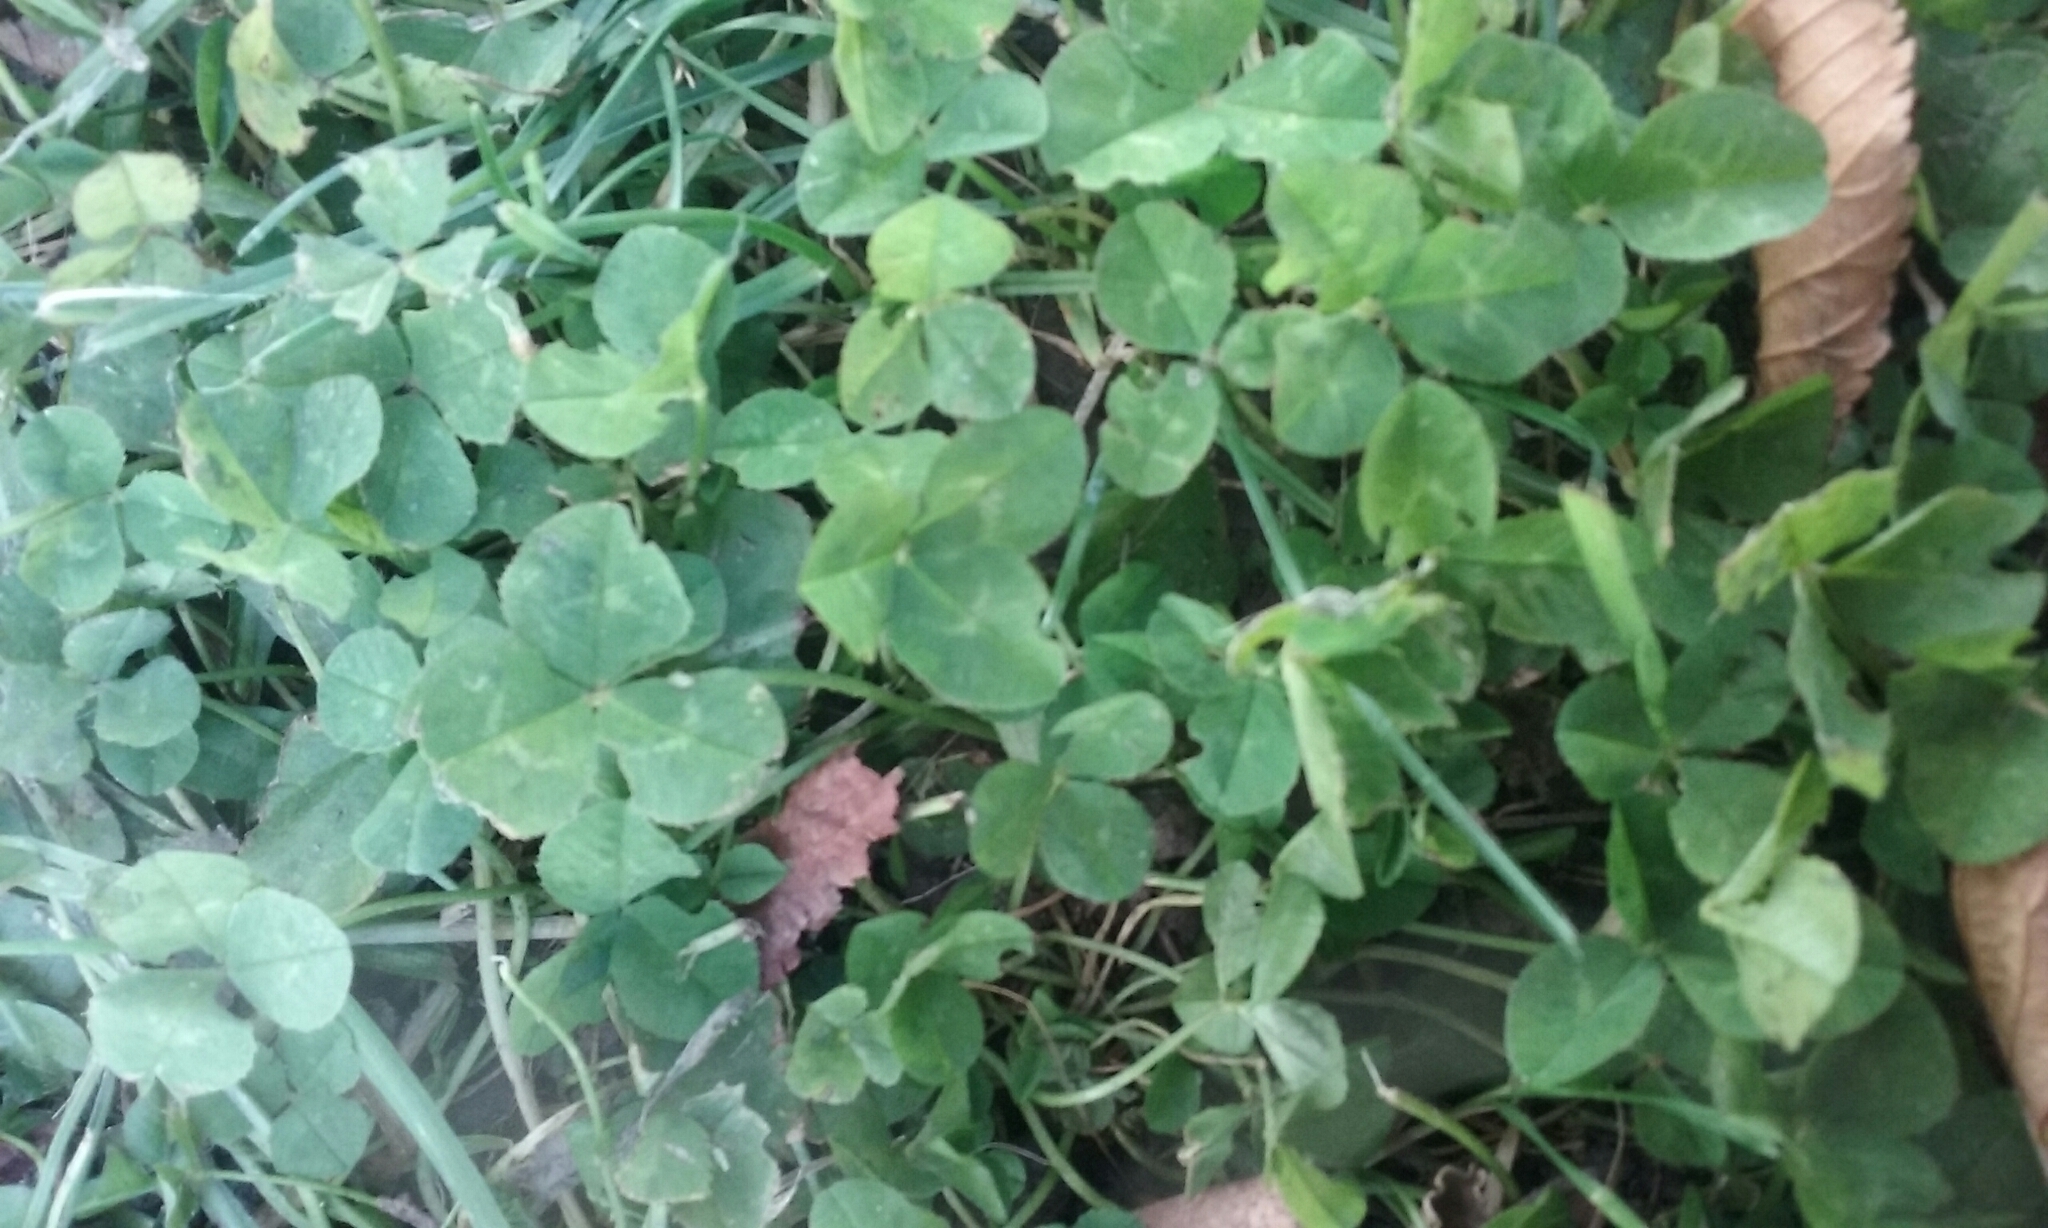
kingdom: Plantae
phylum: Tracheophyta
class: Magnoliopsida
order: Fabales
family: Fabaceae
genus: Trifolium
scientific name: Trifolium repens
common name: White clover
